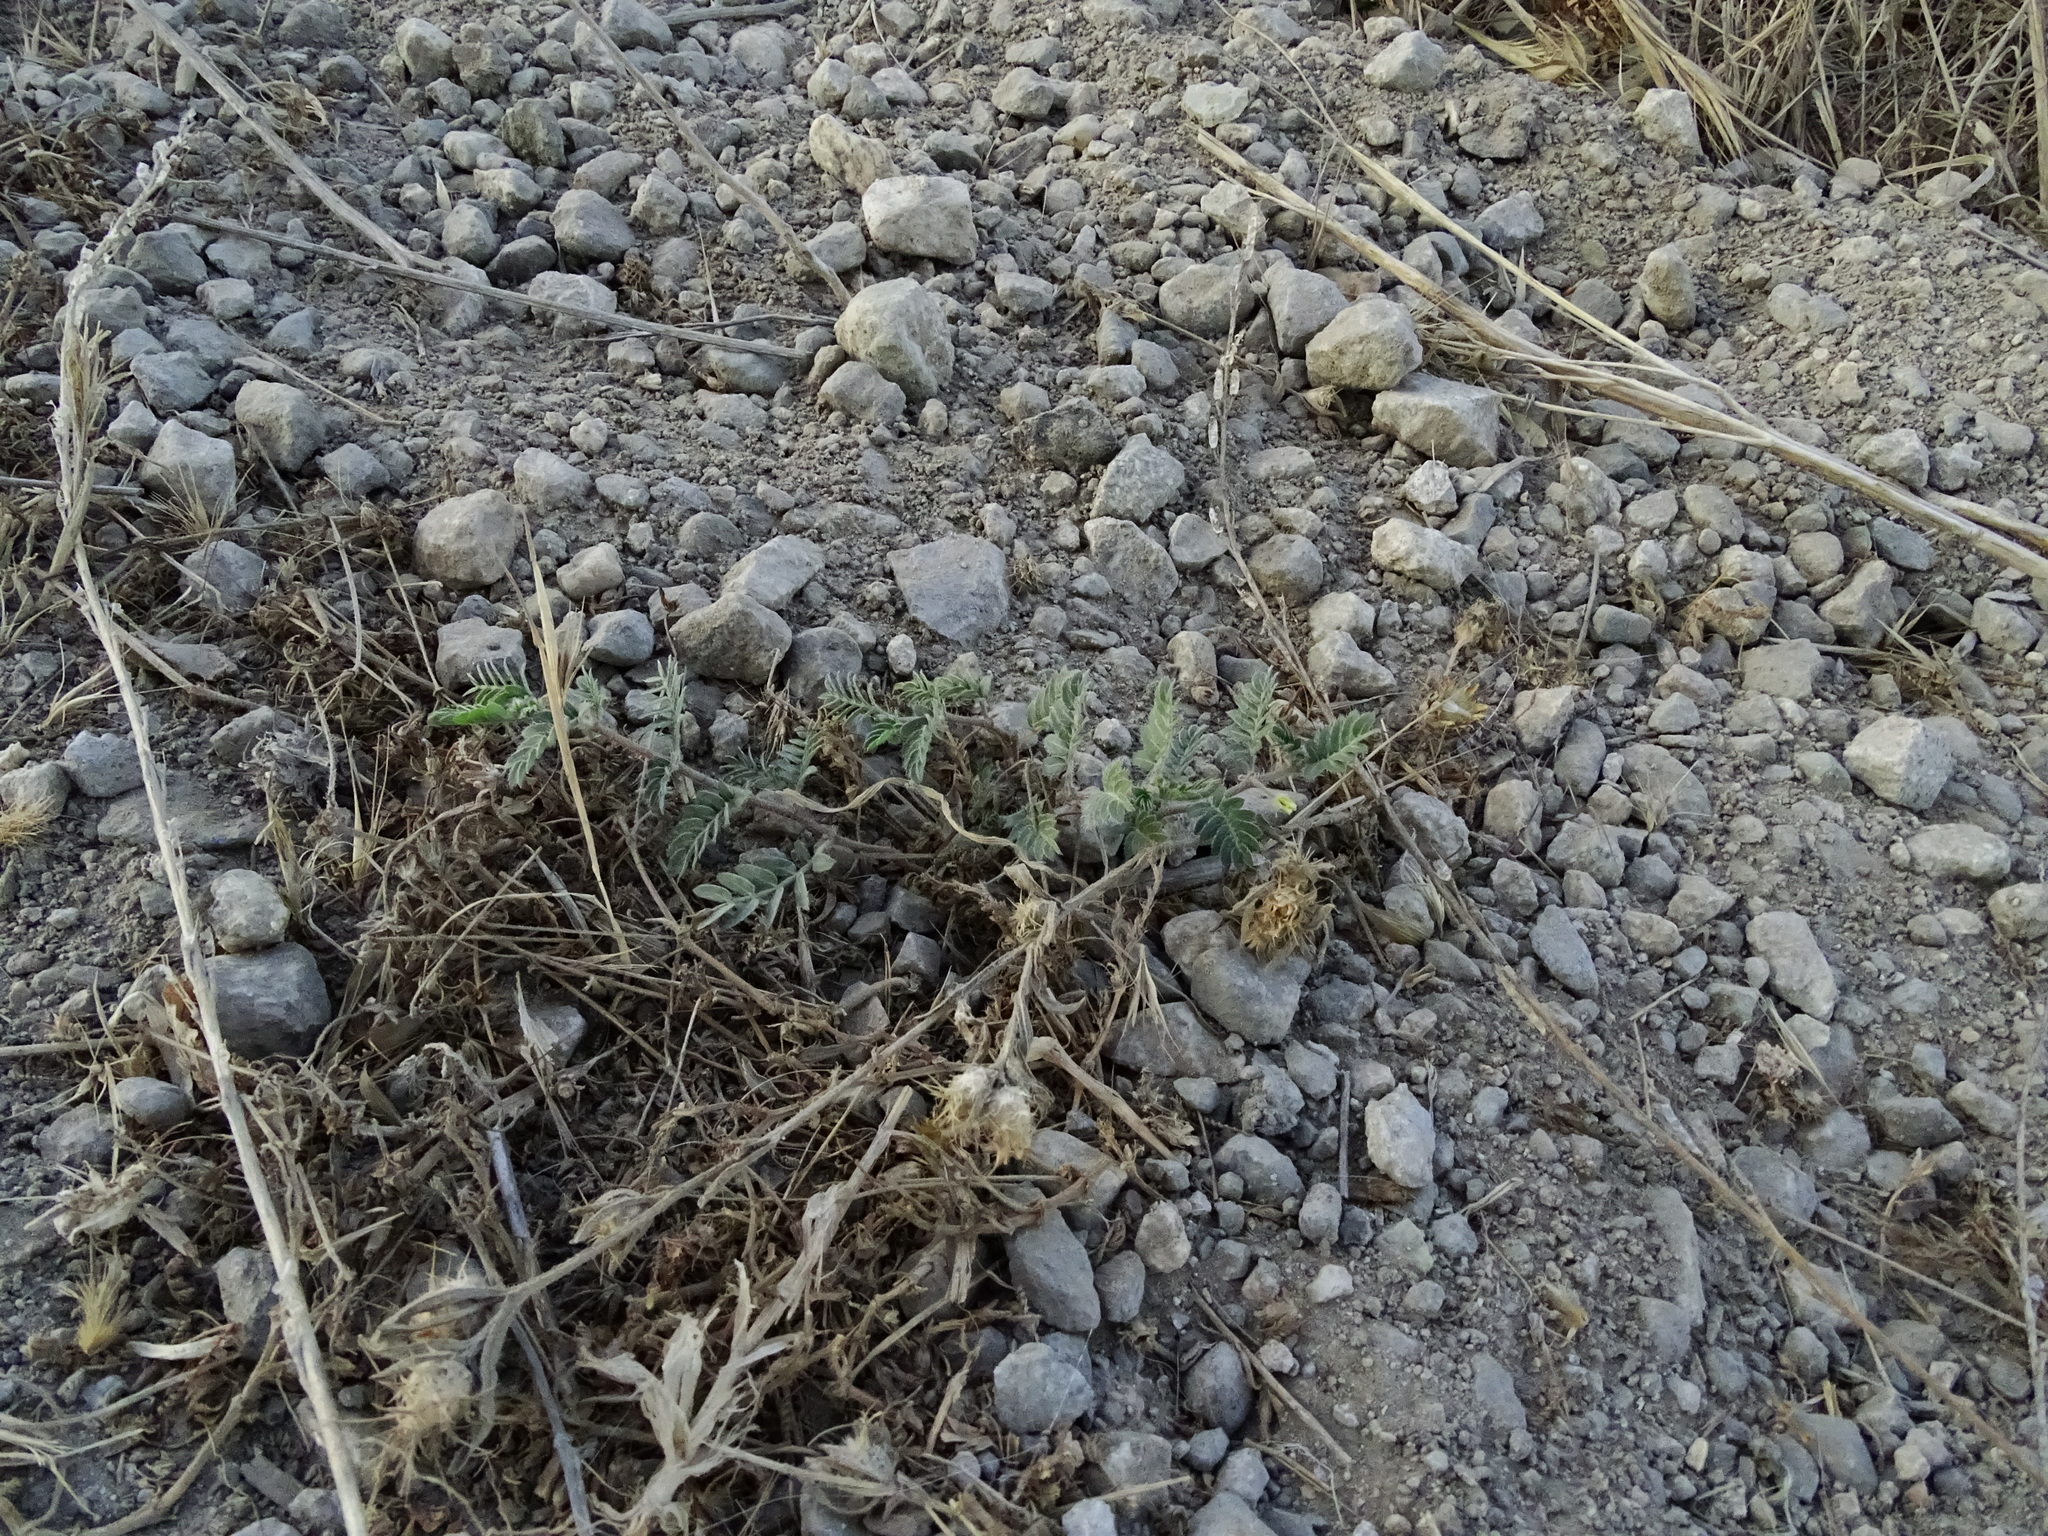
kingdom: Plantae
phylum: Tracheophyta
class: Magnoliopsida
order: Zygophyllales
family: Zygophyllaceae
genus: Tribulus
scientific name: Tribulus terrestris
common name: Puncturevine
